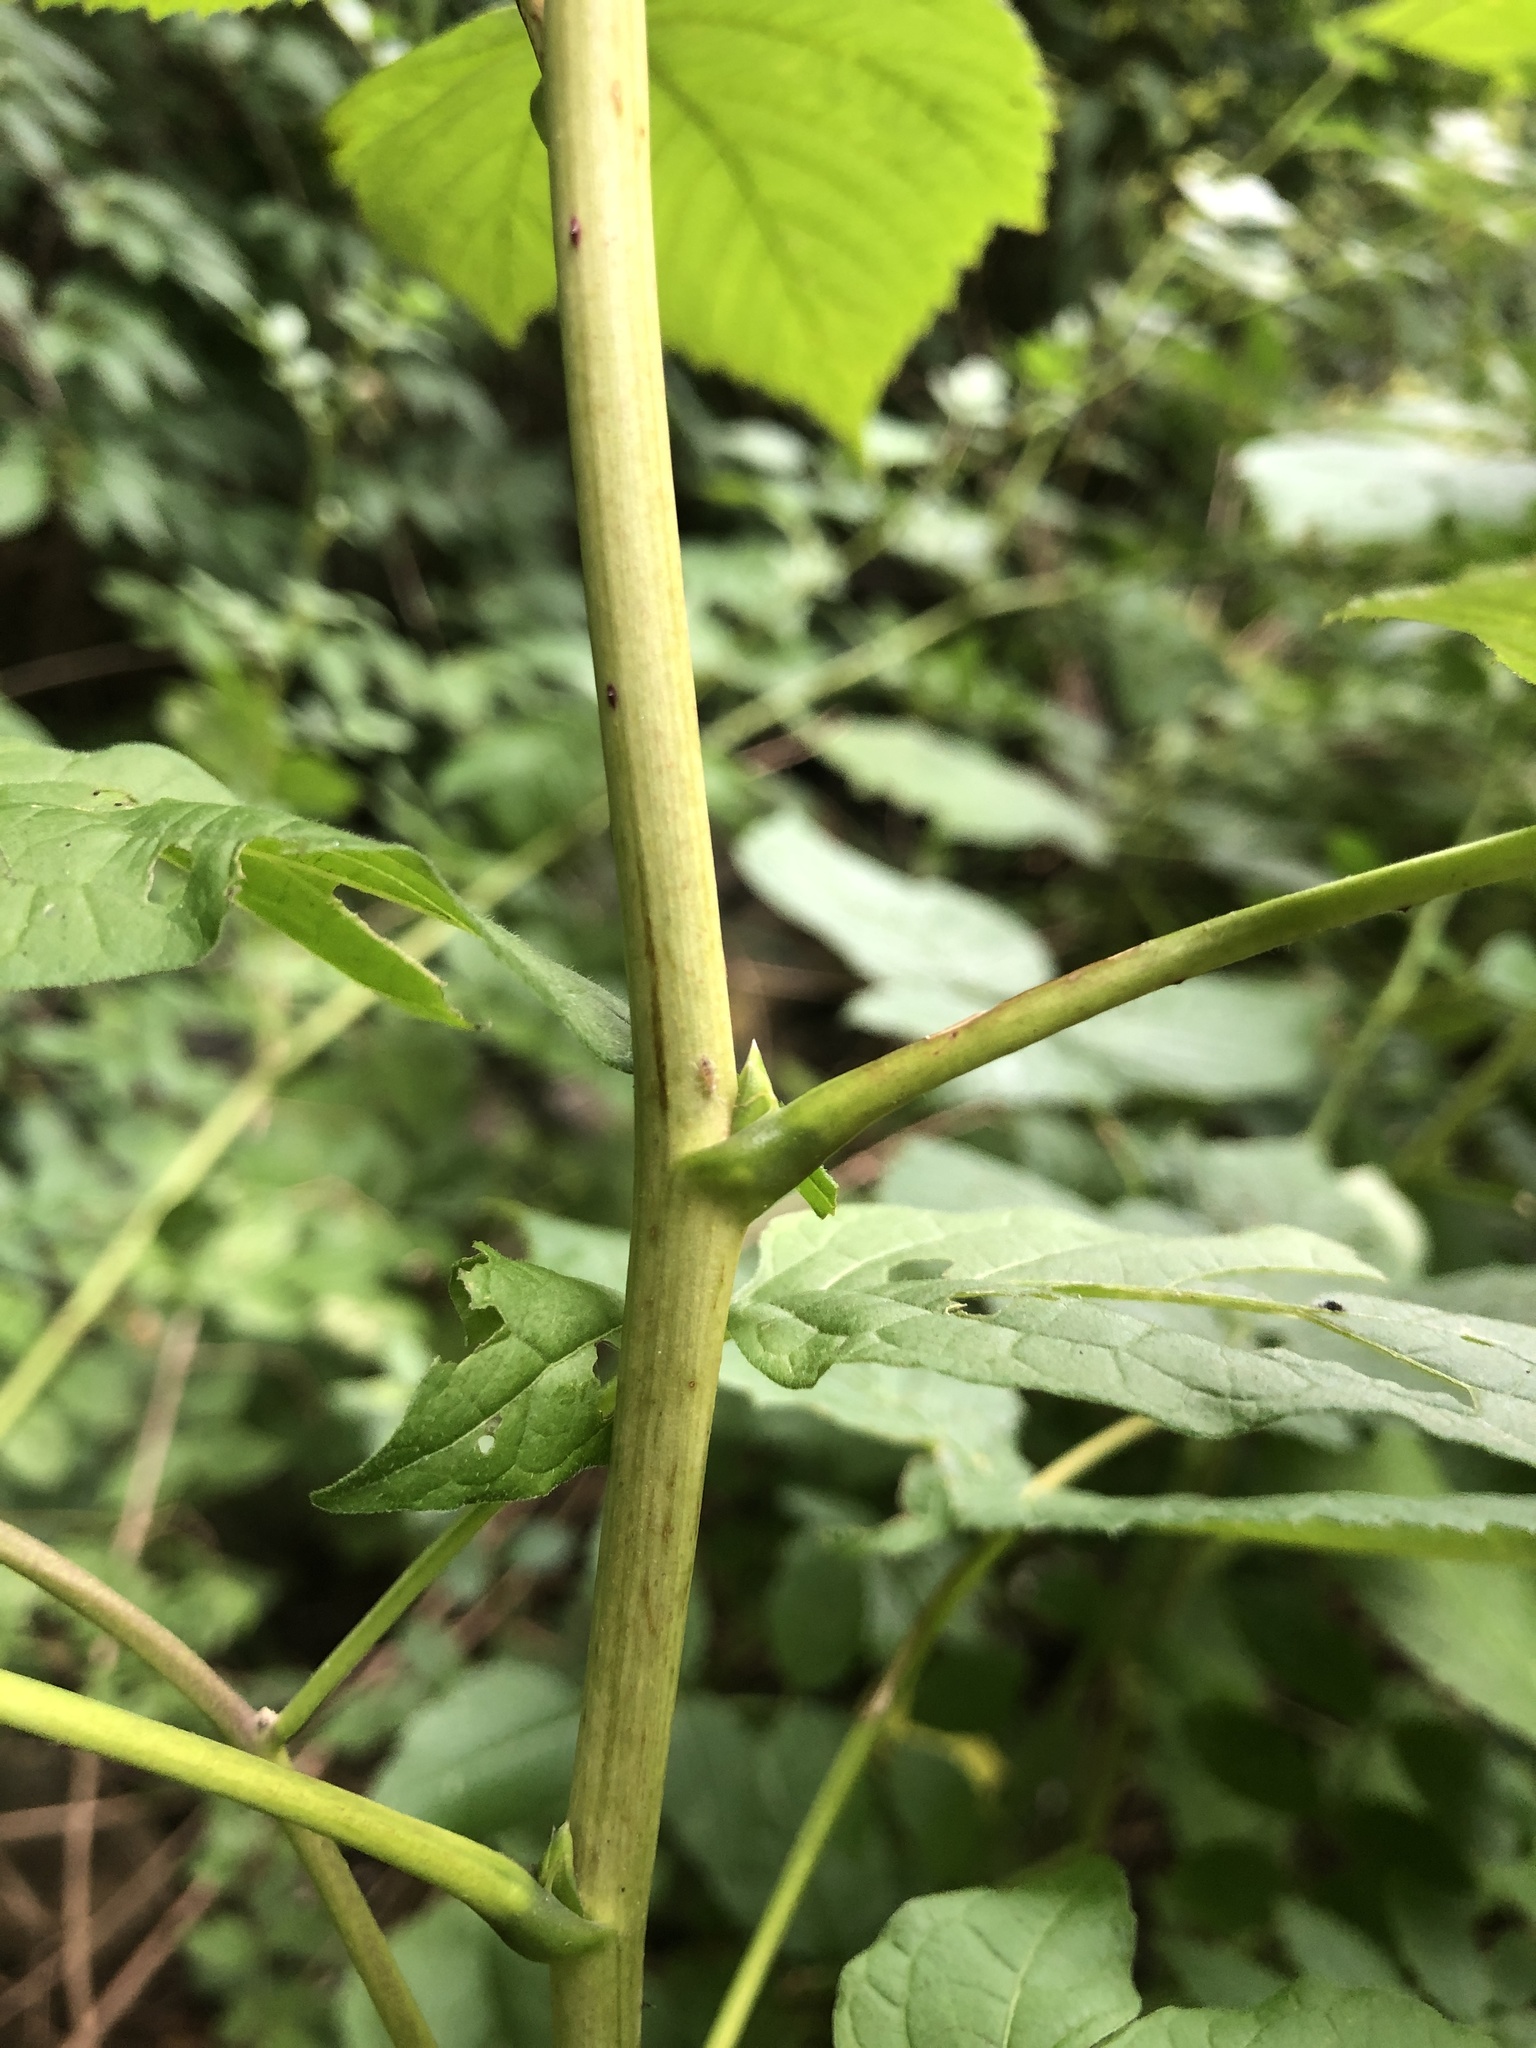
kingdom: Plantae
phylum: Tracheophyta
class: Magnoliopsida
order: Solanales
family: Solanaceae
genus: Solanum
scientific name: Solanum dulcamara
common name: Climbing nightshade
